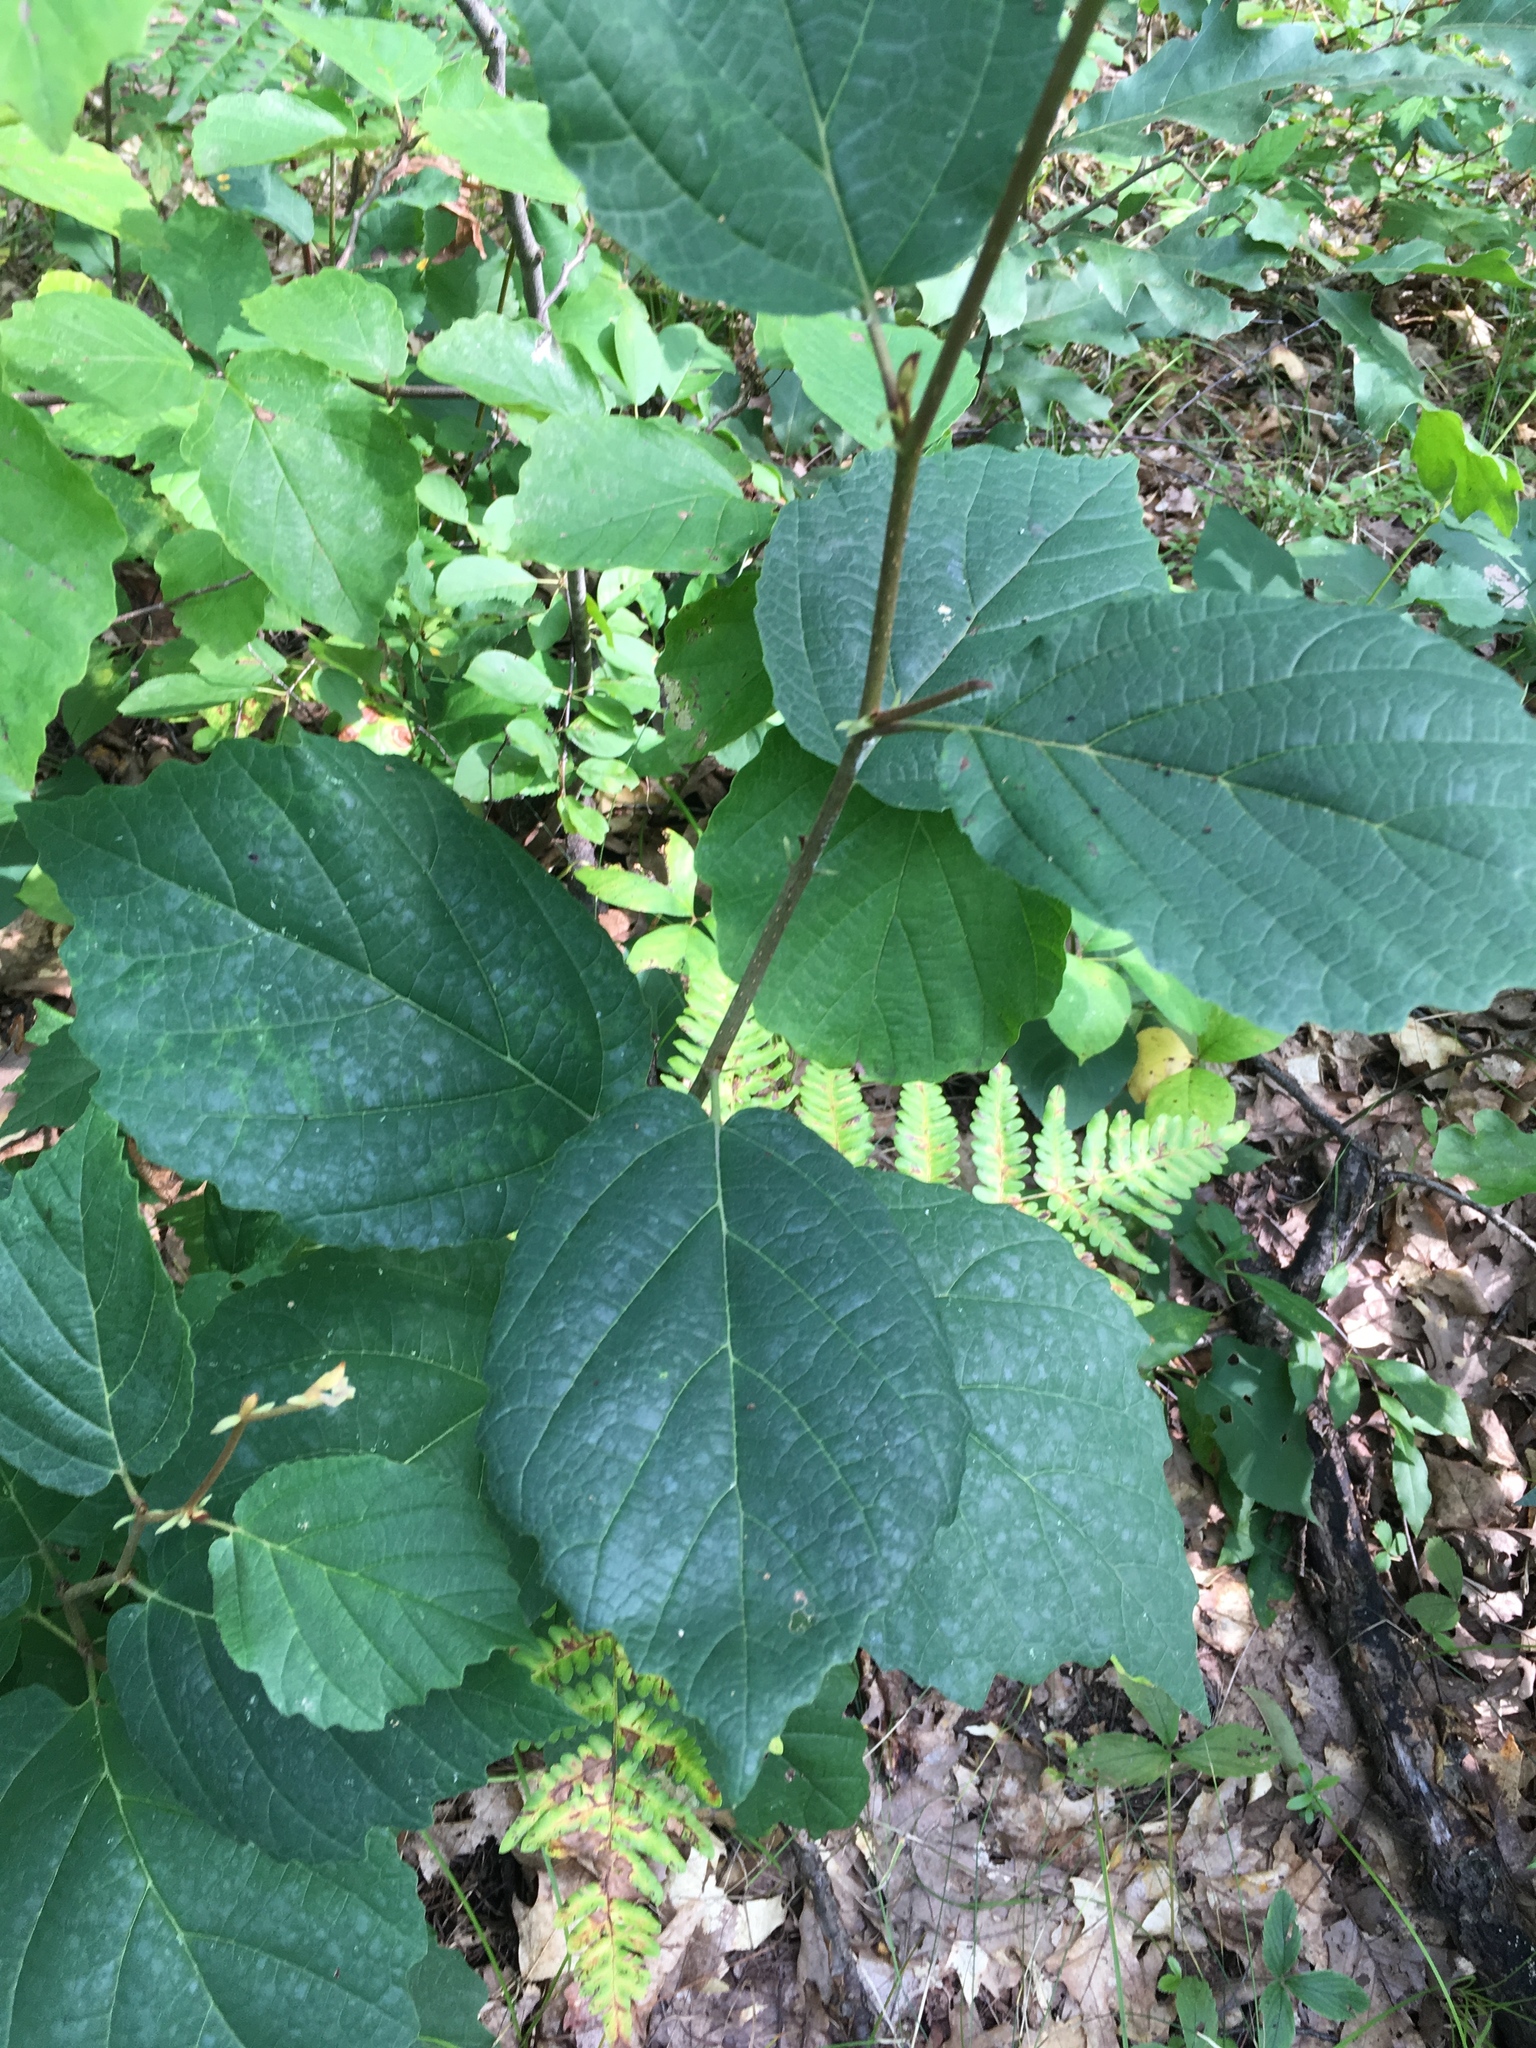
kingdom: Plantae
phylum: Tracheophyta
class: Magnoliopsida
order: Saxifragales
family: Hamamelidaceae
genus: Hamamelis
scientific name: Hamamelis virginiana
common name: Witch-hazel
